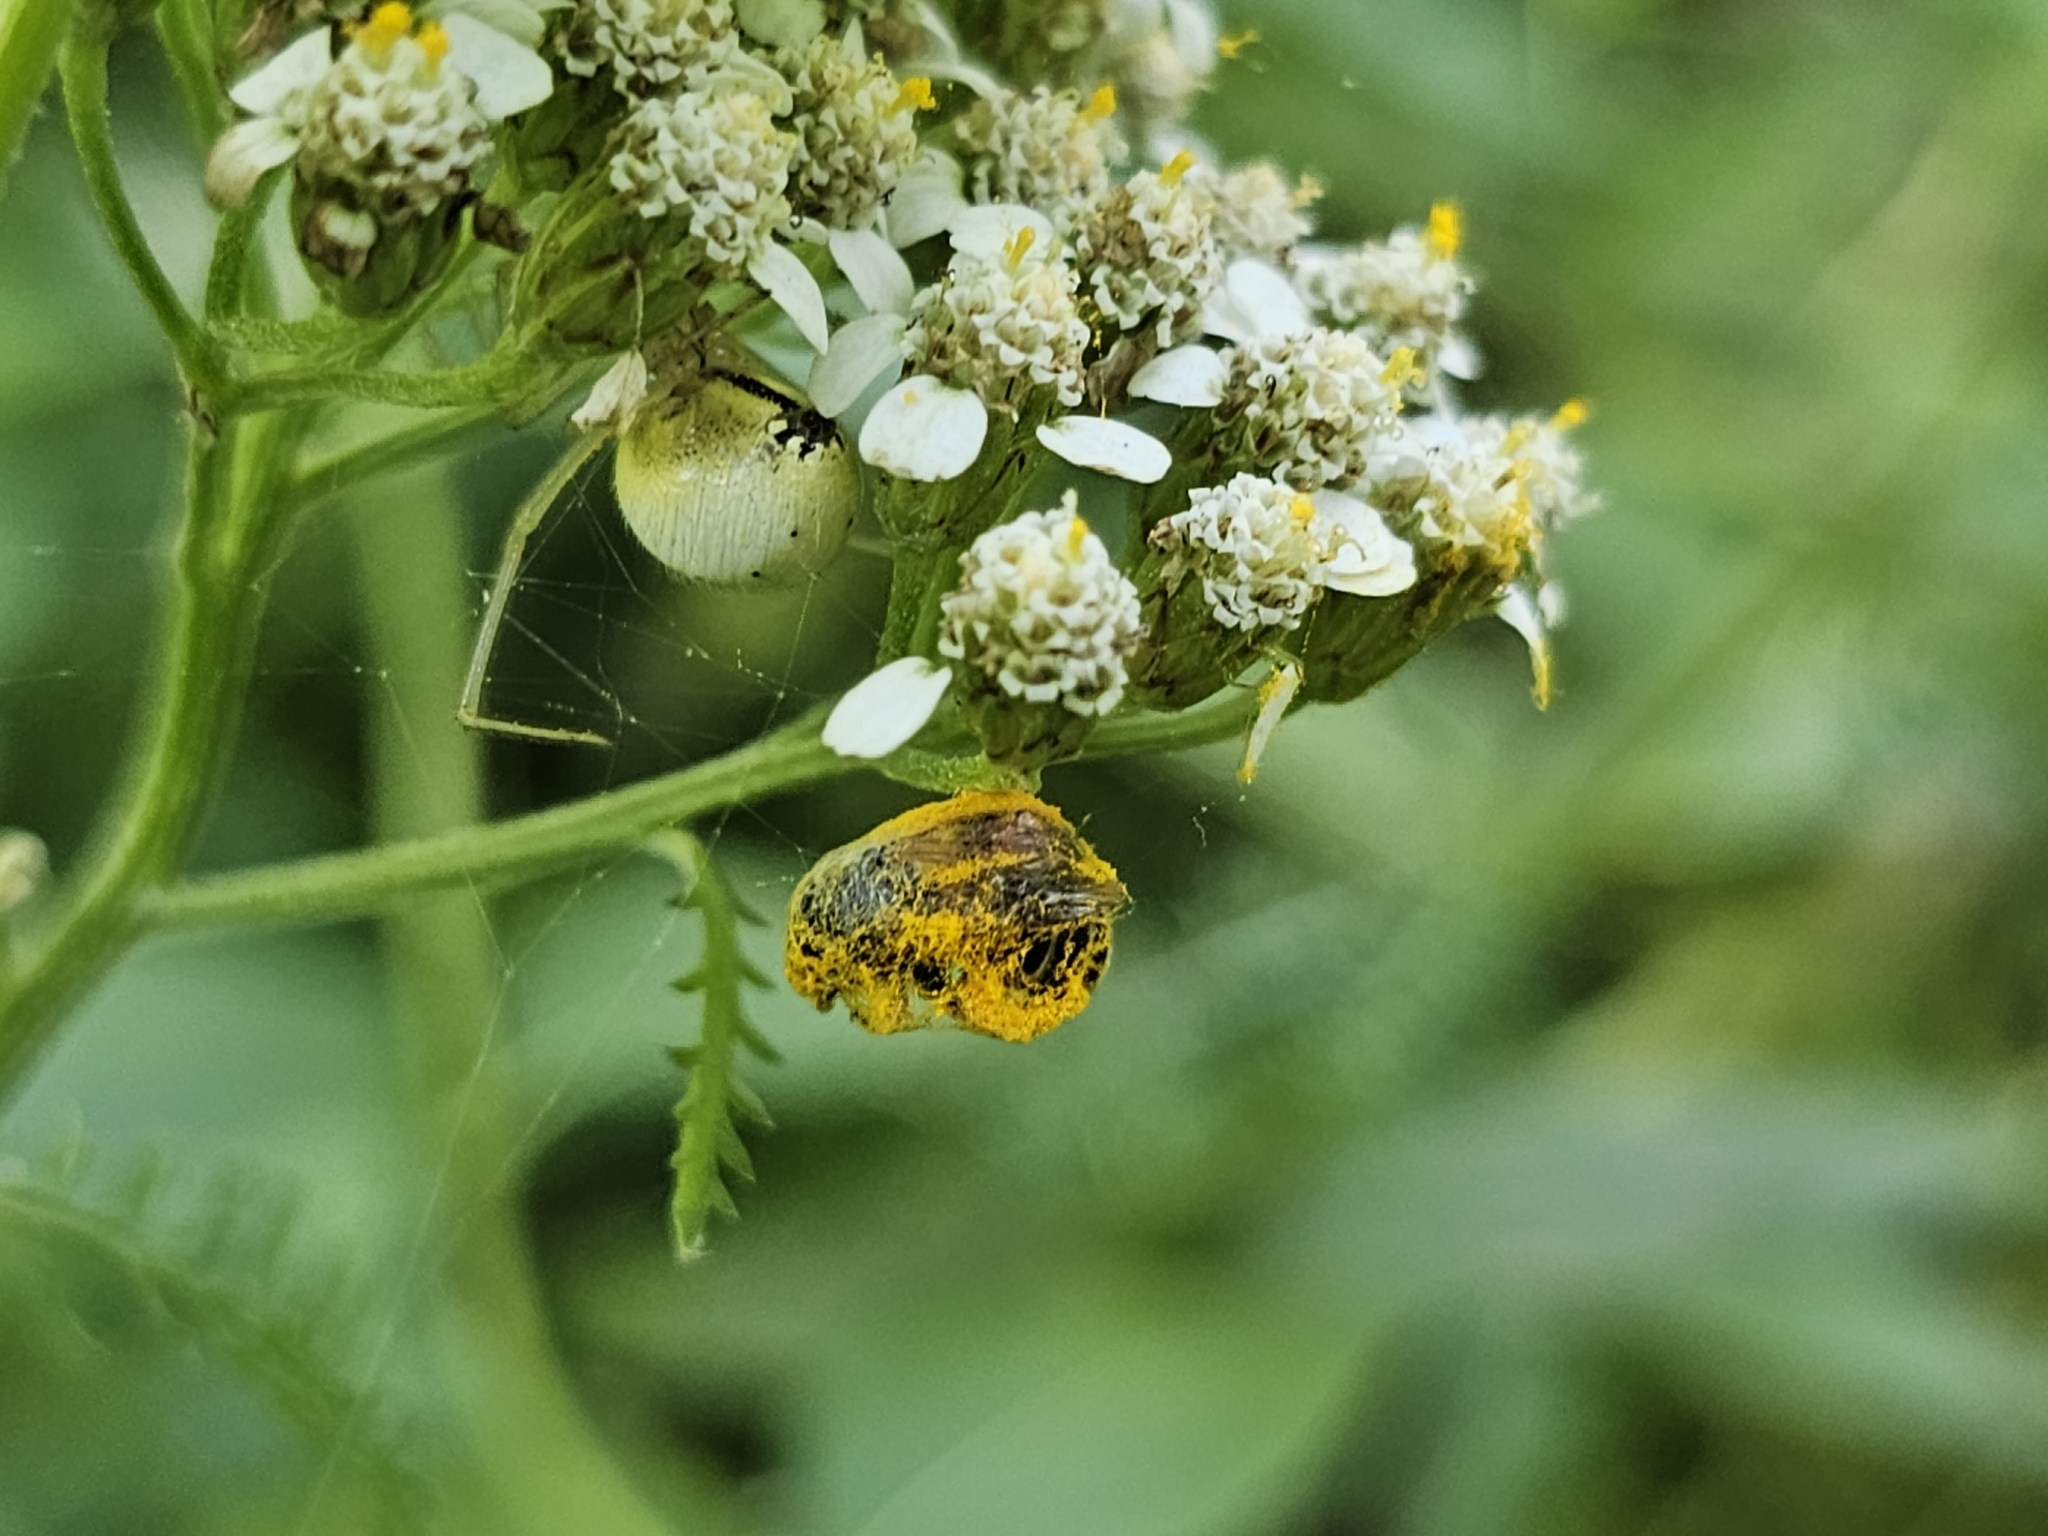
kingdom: Animalia
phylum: Arthropoda
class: Arachnida
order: Araneae
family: Theridiidae
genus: Enoplognatha
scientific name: Enoplognatha ovata
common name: Common candy-striped spider
